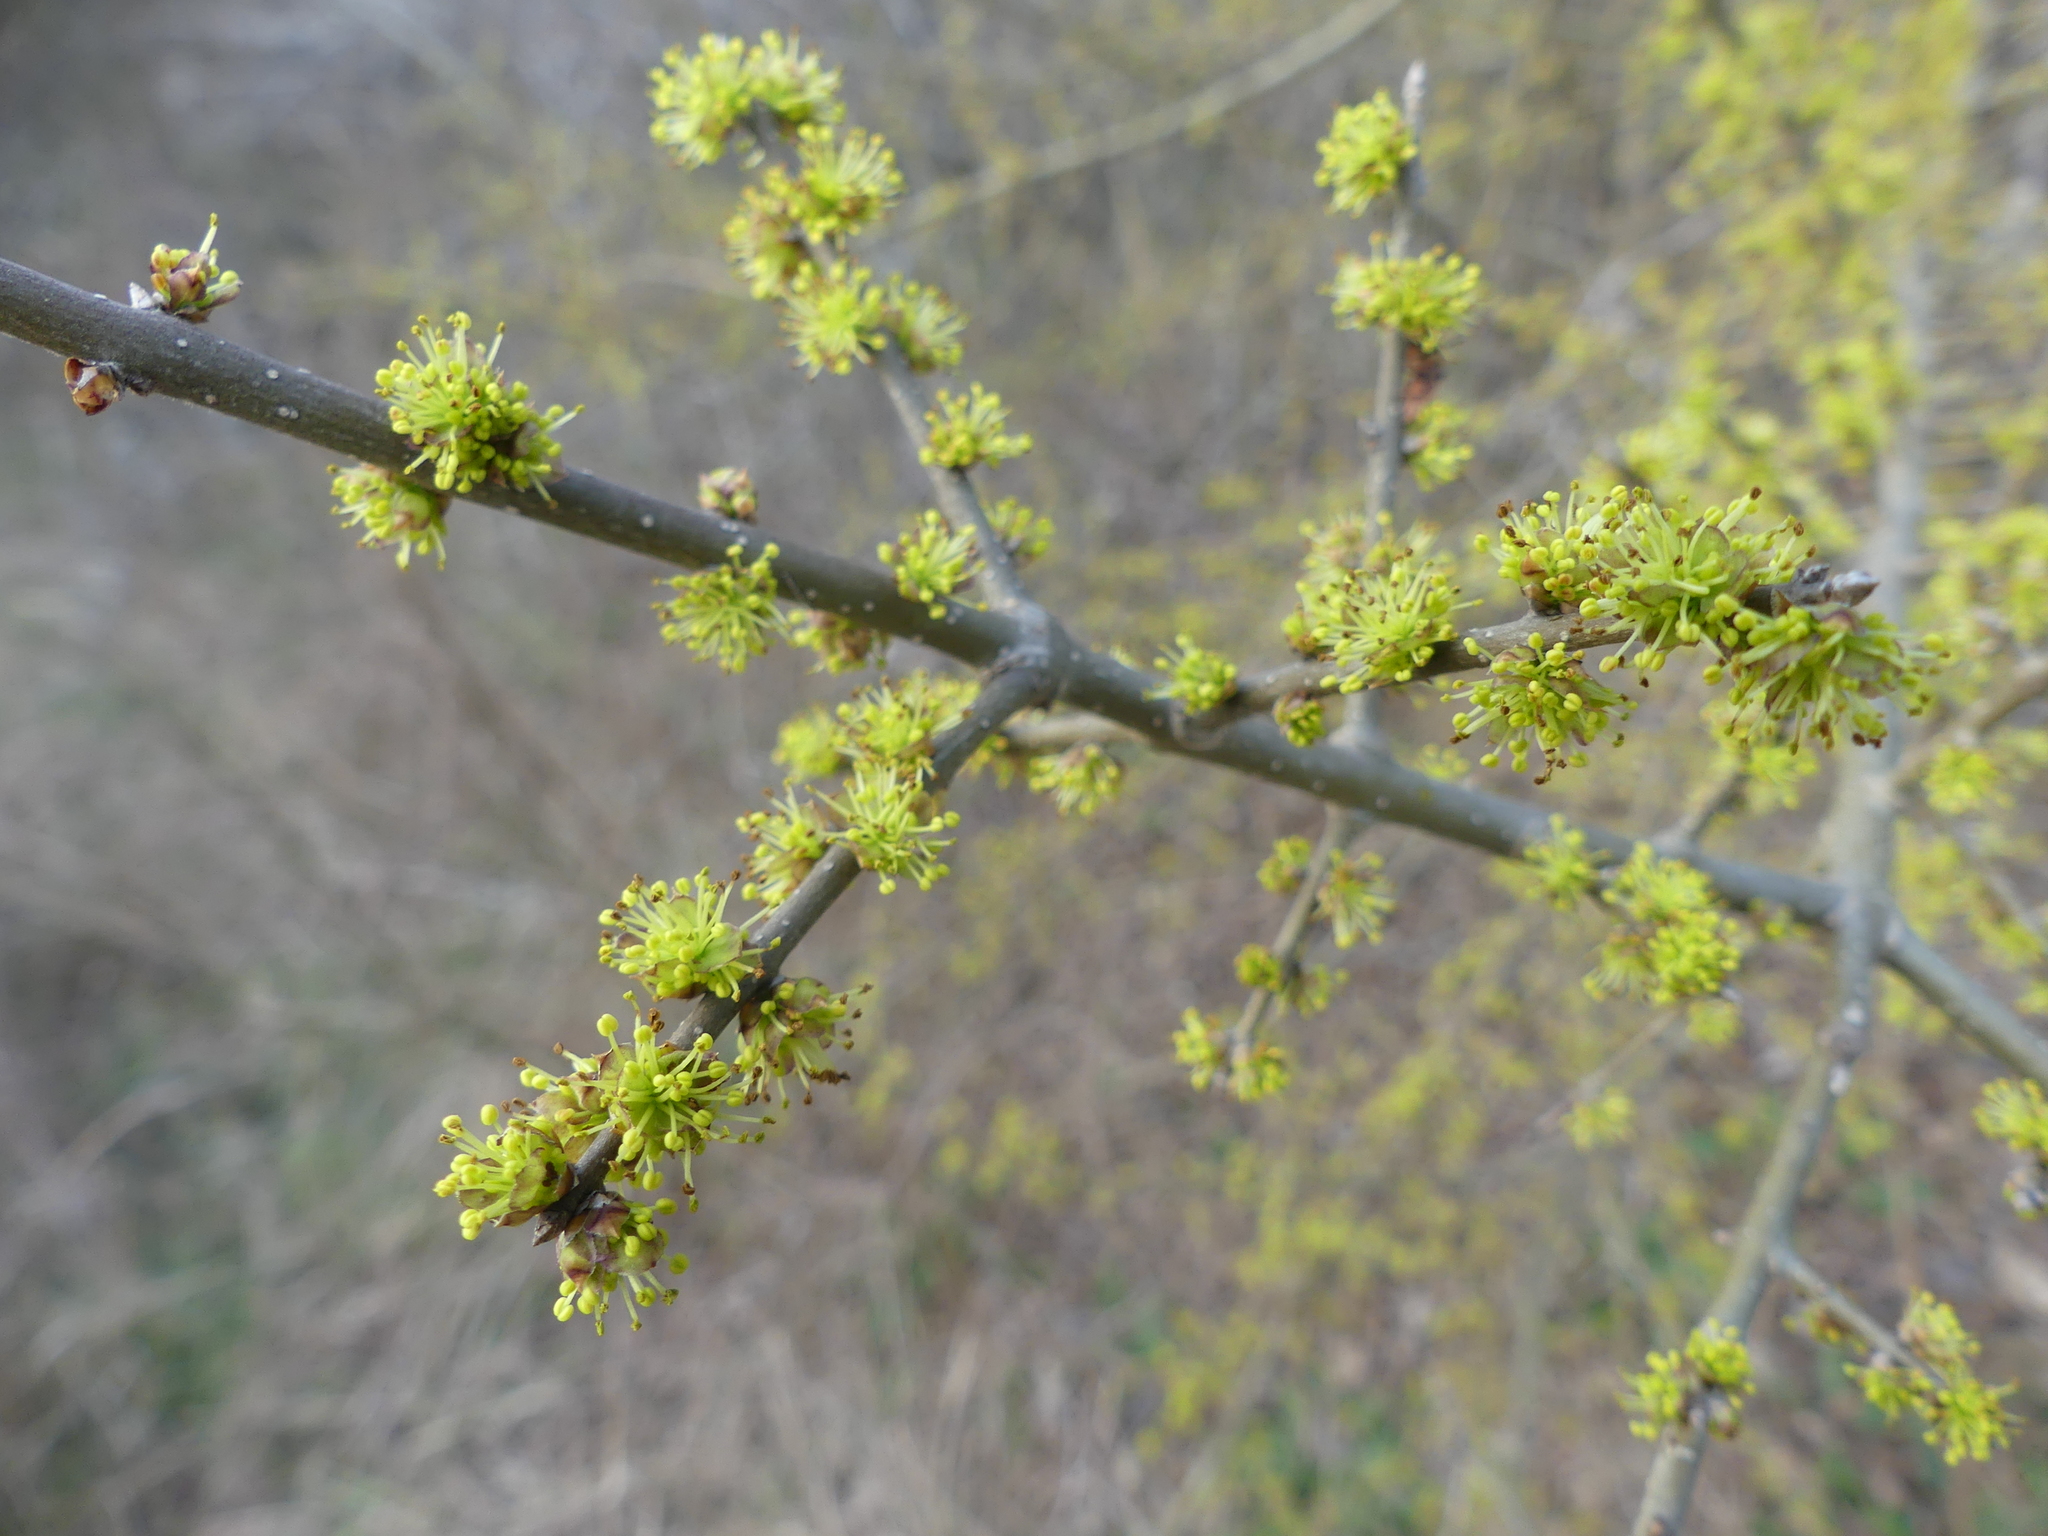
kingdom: Plantae
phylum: Tracheophyta
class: Magnoliopsida
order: Lamiales
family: Oleaceae
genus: Forestiera
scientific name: Forestiera pubescens
